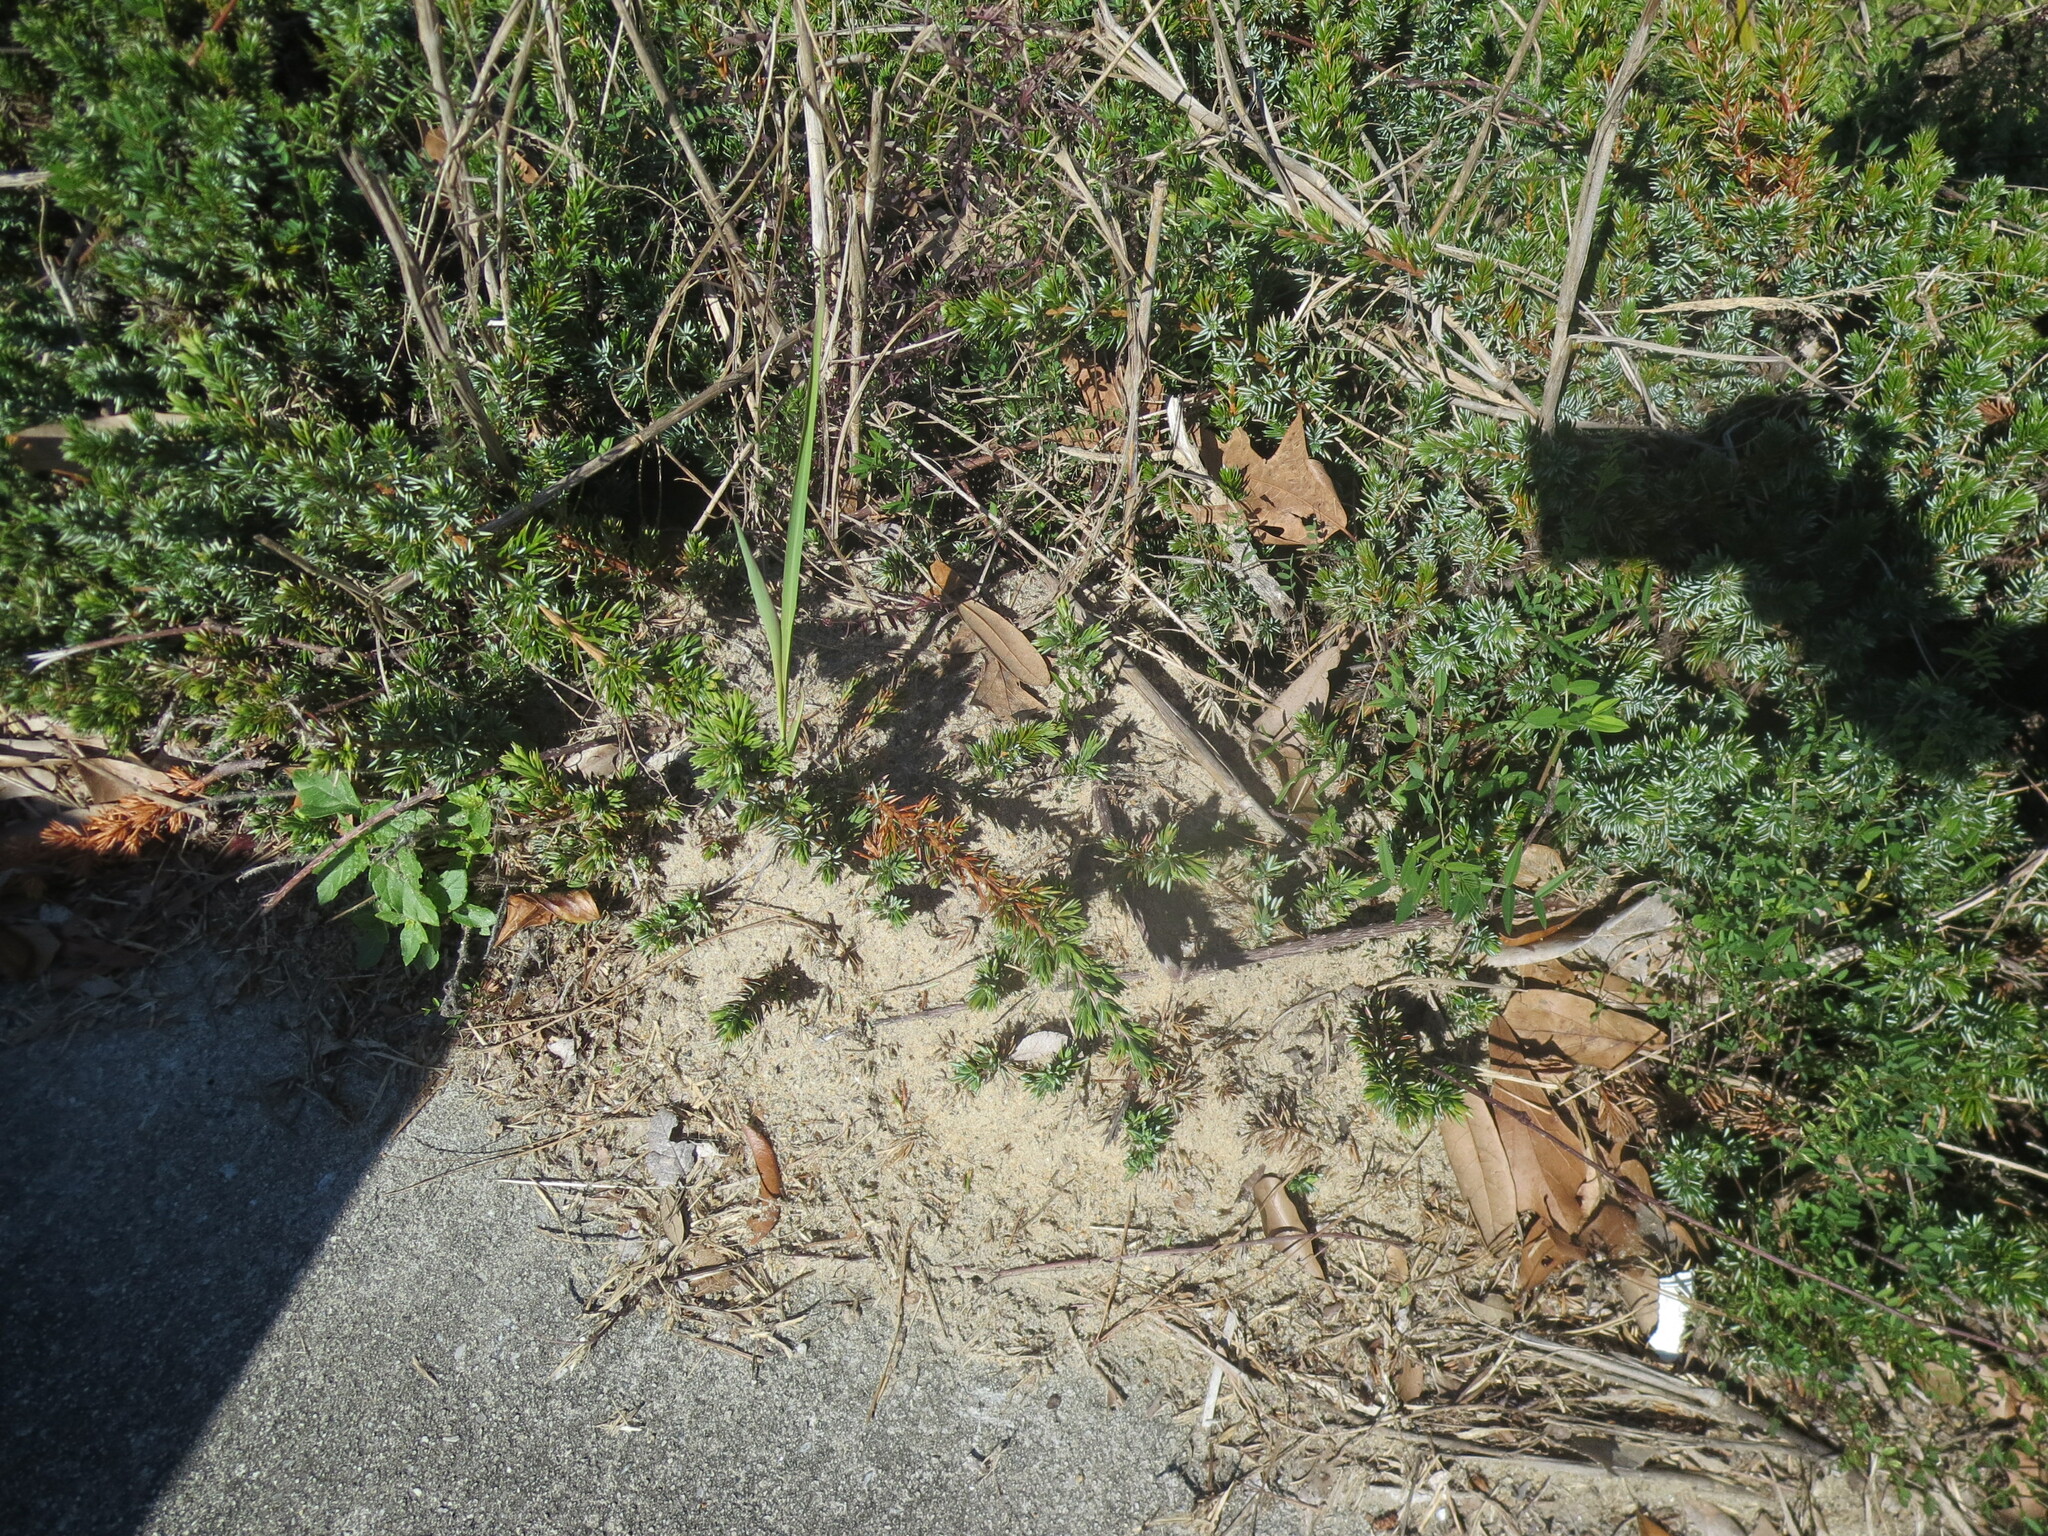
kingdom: Animalia
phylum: Arthropoda
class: Insecta
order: Hymenoptera
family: Formicidae
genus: Solenopsis
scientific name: Solenopsis invicta
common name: Red imported fire ant
